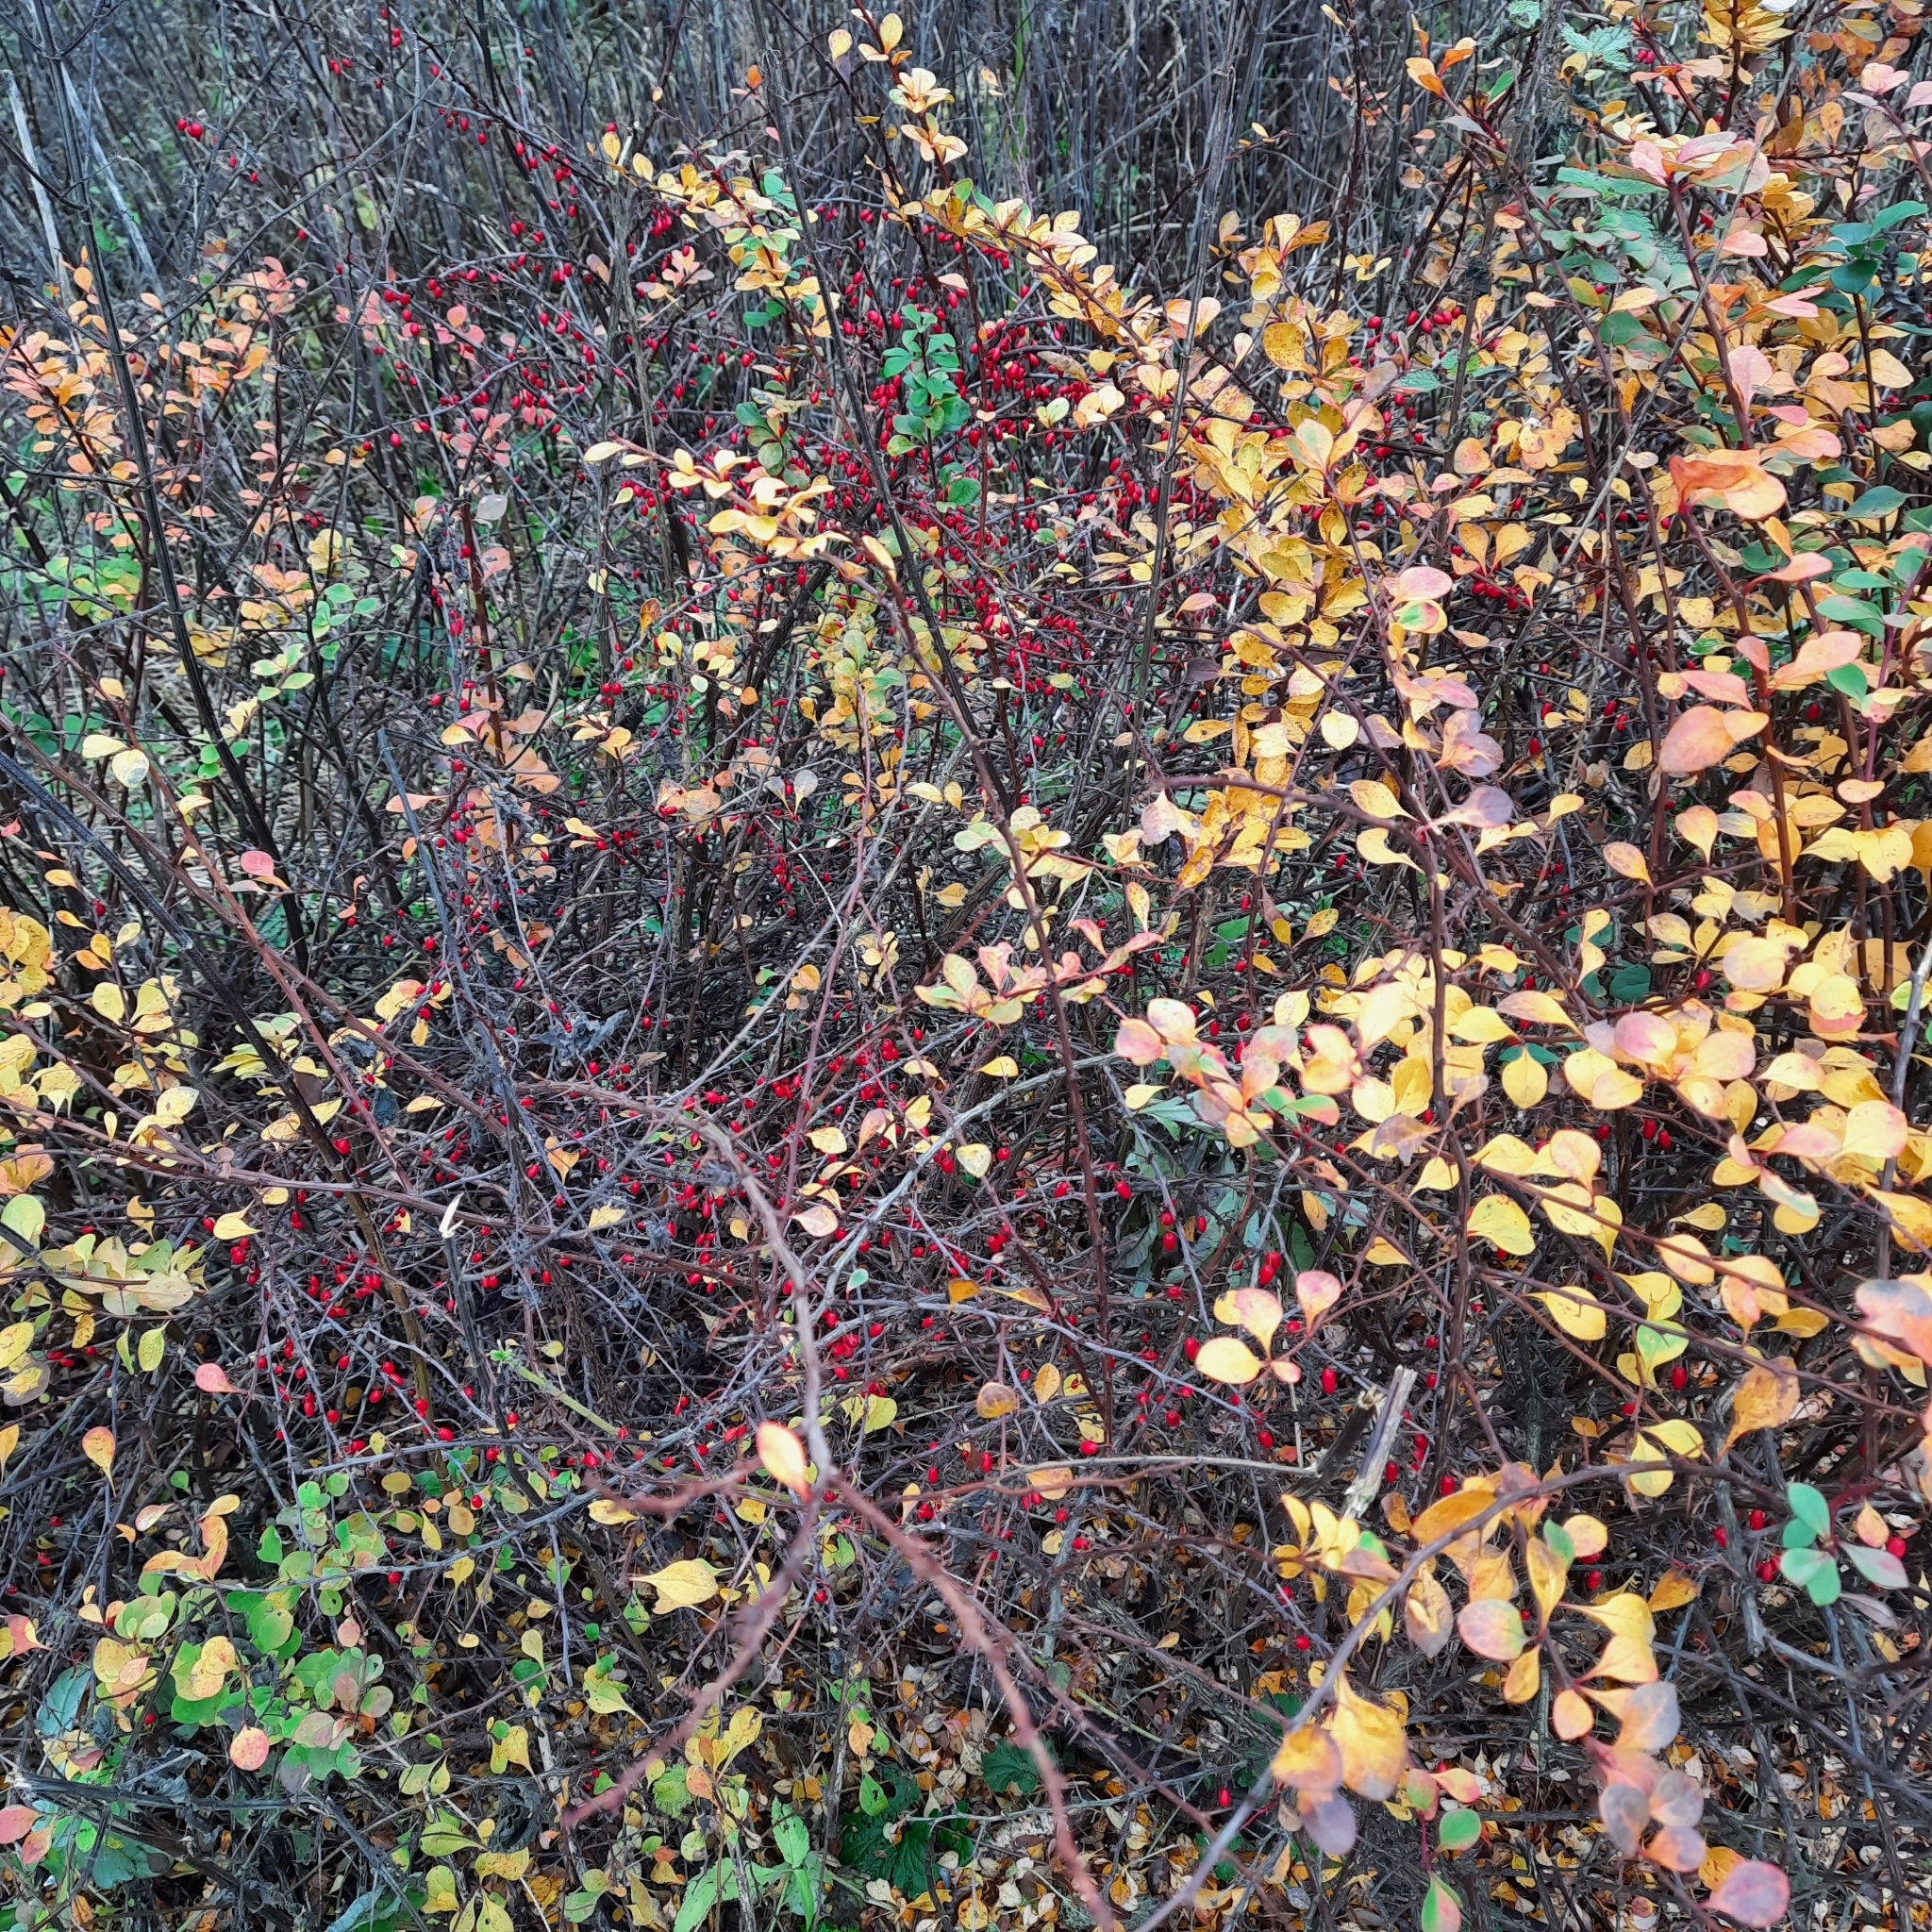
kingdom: Plantae
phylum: Tracheophyta
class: Magnoliopsida
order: Ranunculales
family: Berberidaceae
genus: Berberis
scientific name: Berberis thunbergii
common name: Japanese barberry
